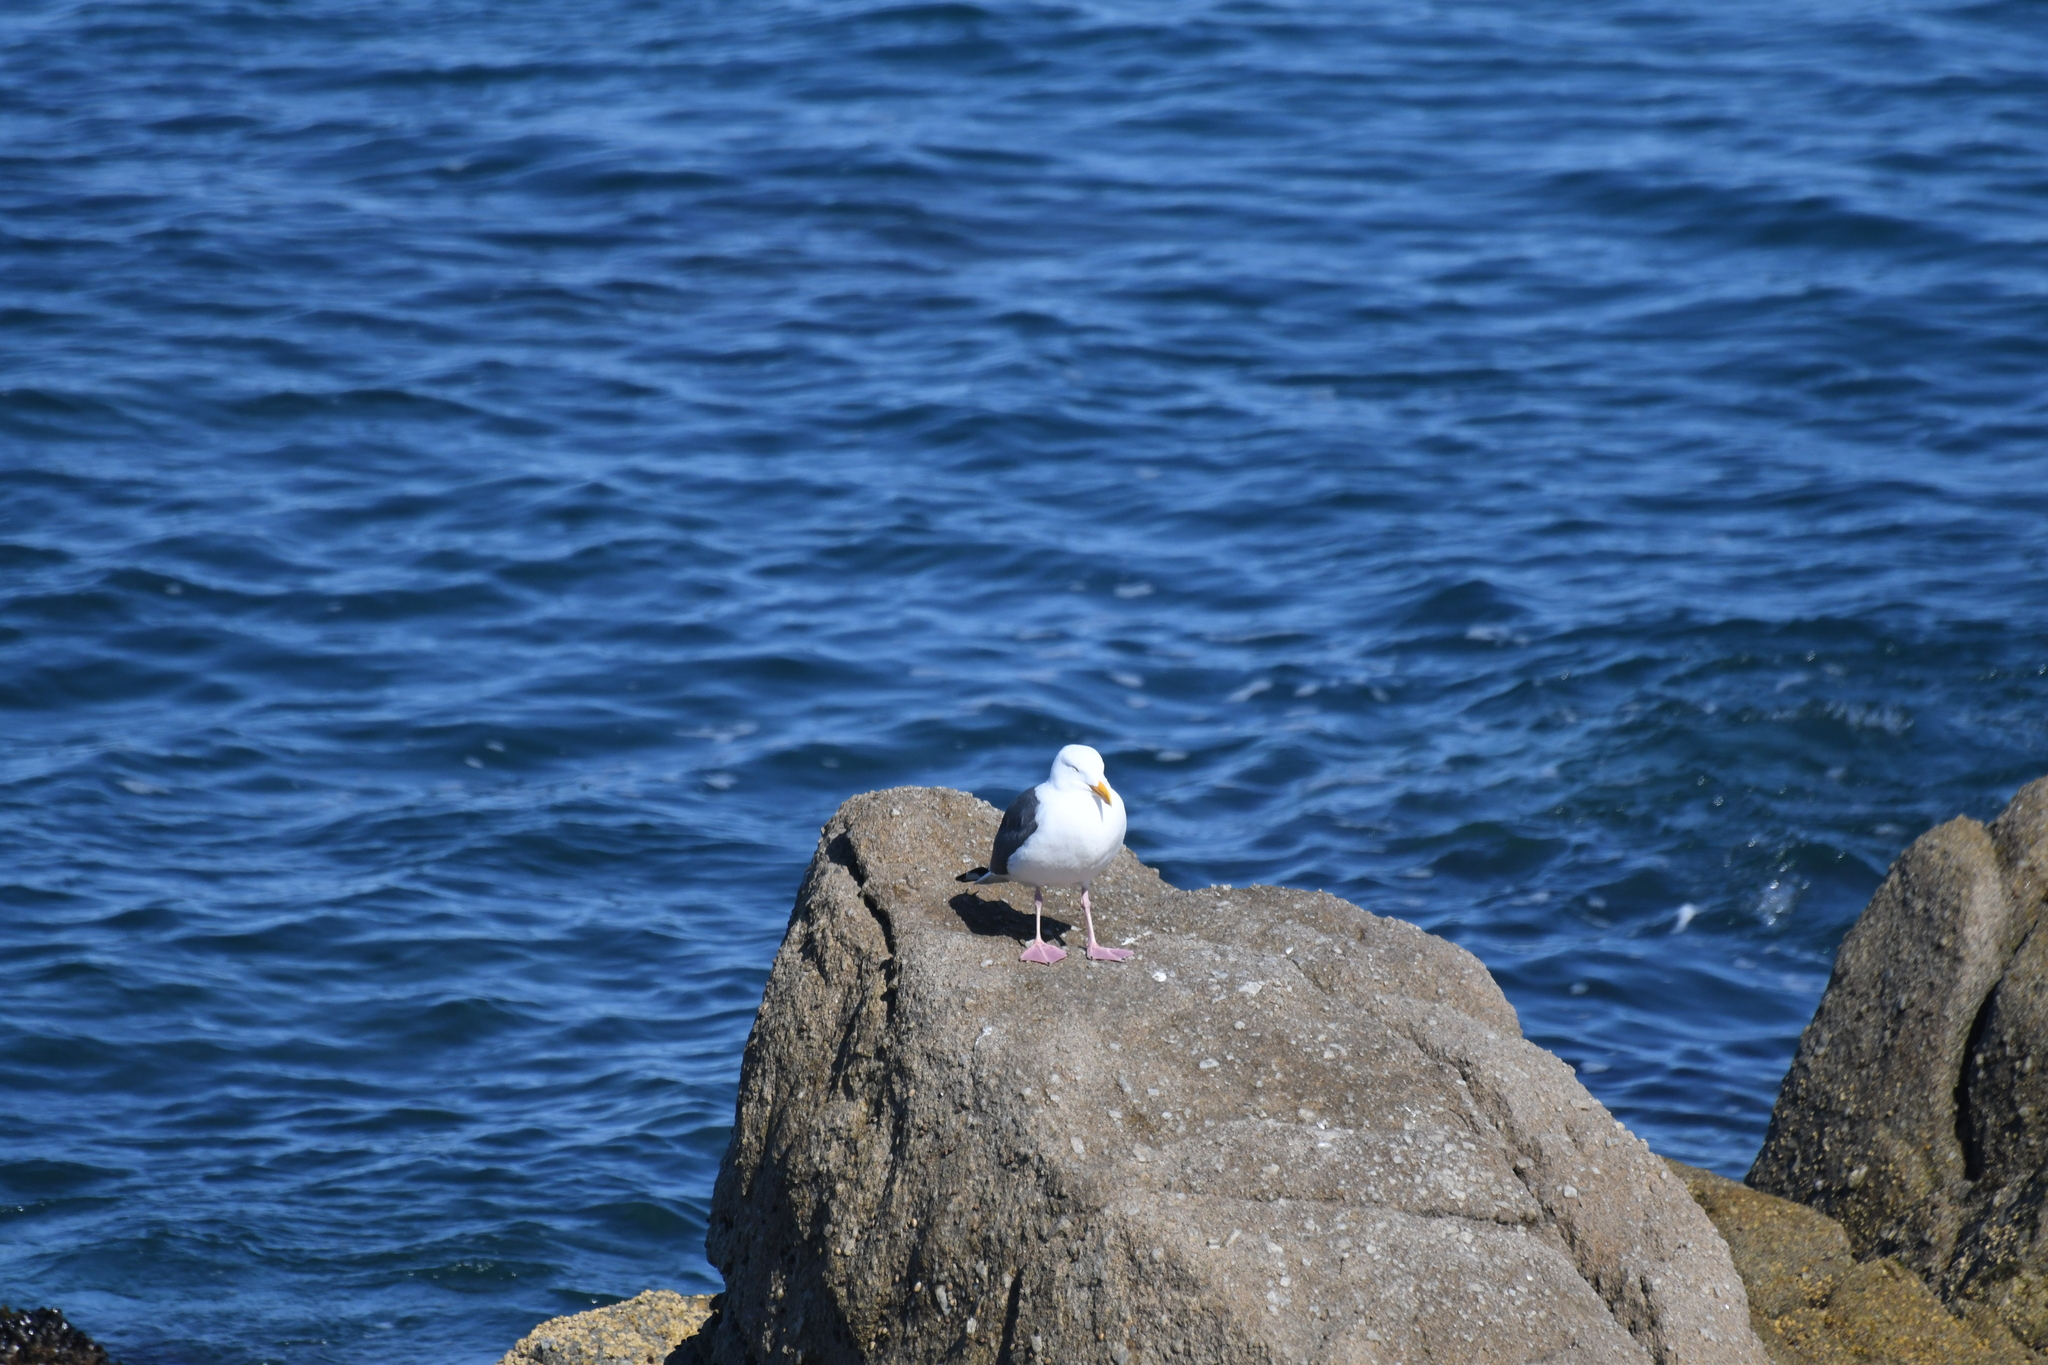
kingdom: Animalia
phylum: Chordata
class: Aves
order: Charadriiformes
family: Laridae
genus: Larus
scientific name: Larus occidentalis
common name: Western gull
